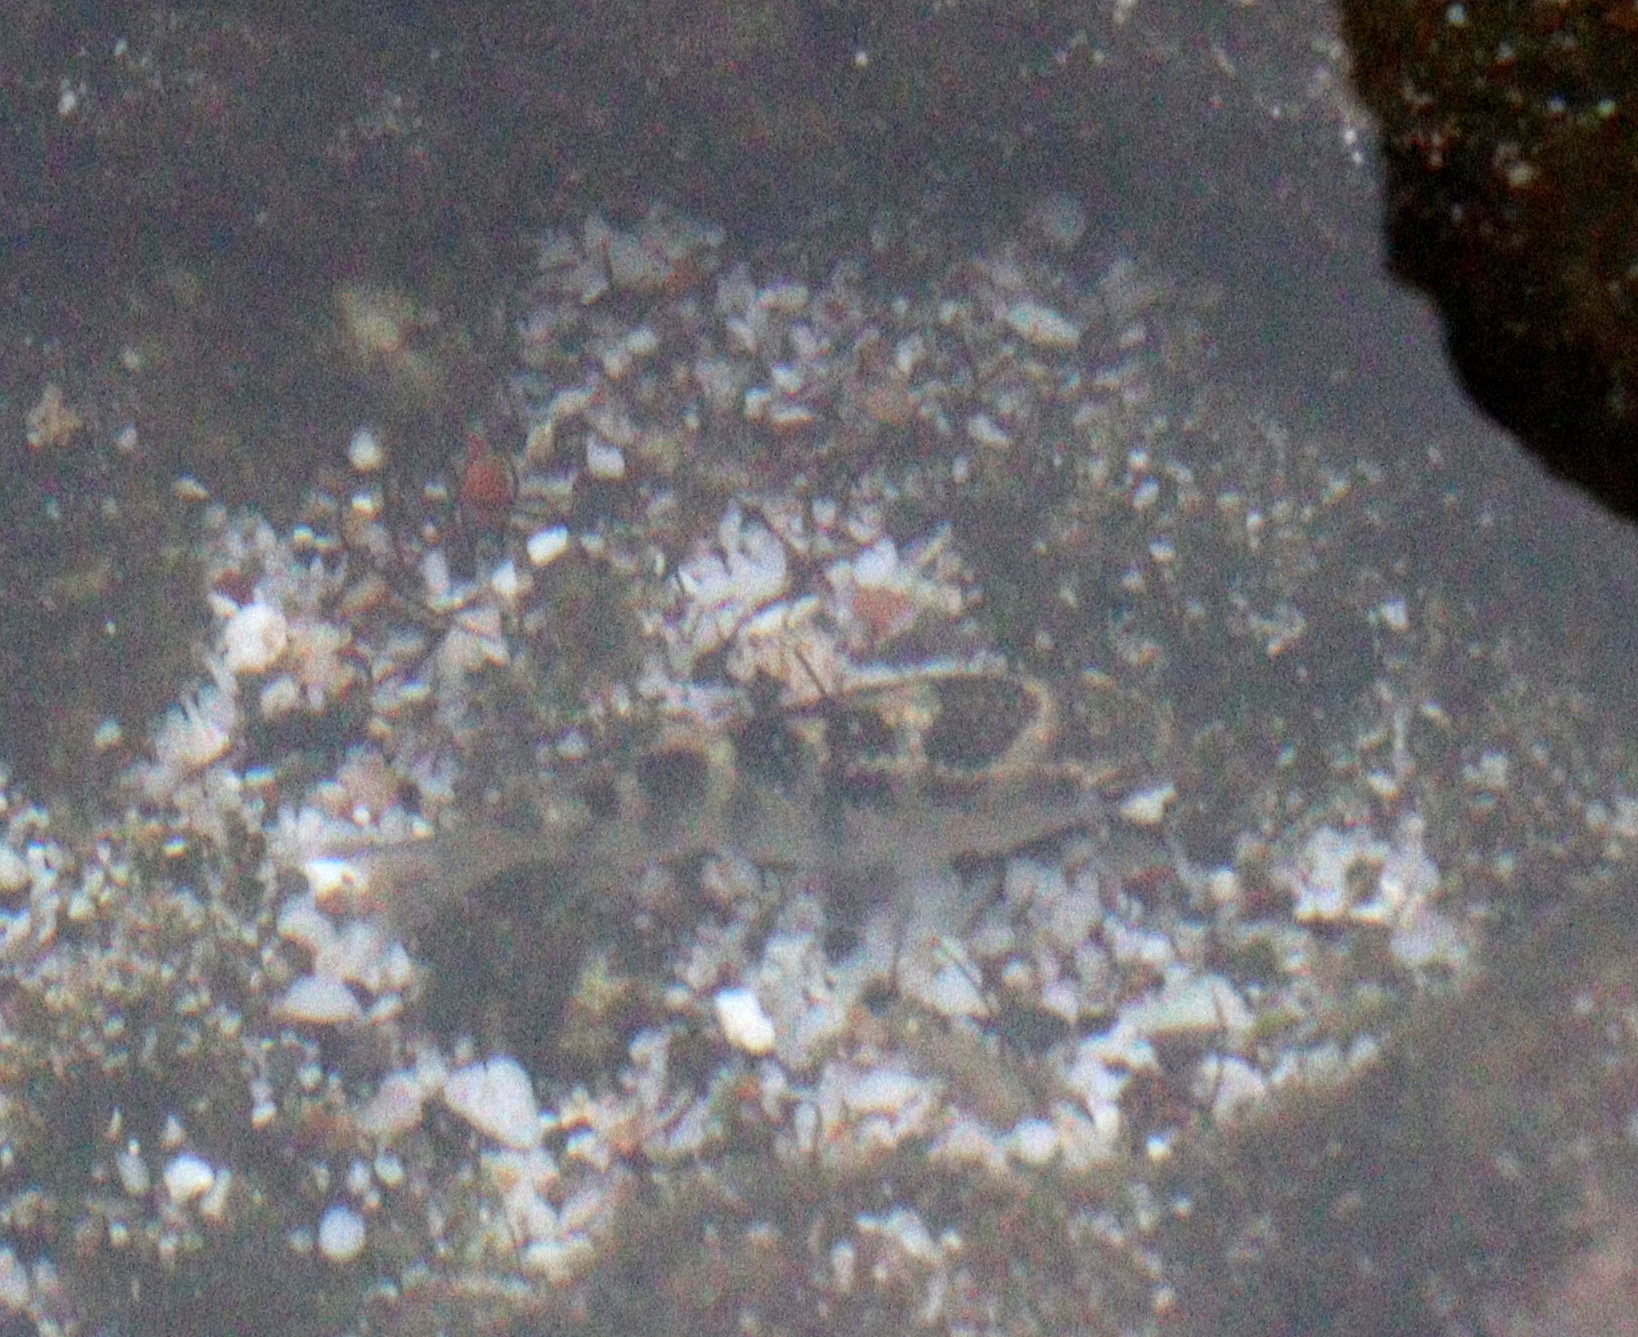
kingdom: Animalia
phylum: Chordata
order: Perciformes
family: Pomacentridae
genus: Abudefduf
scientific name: Abudefduf concolor
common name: Dusky seargent
